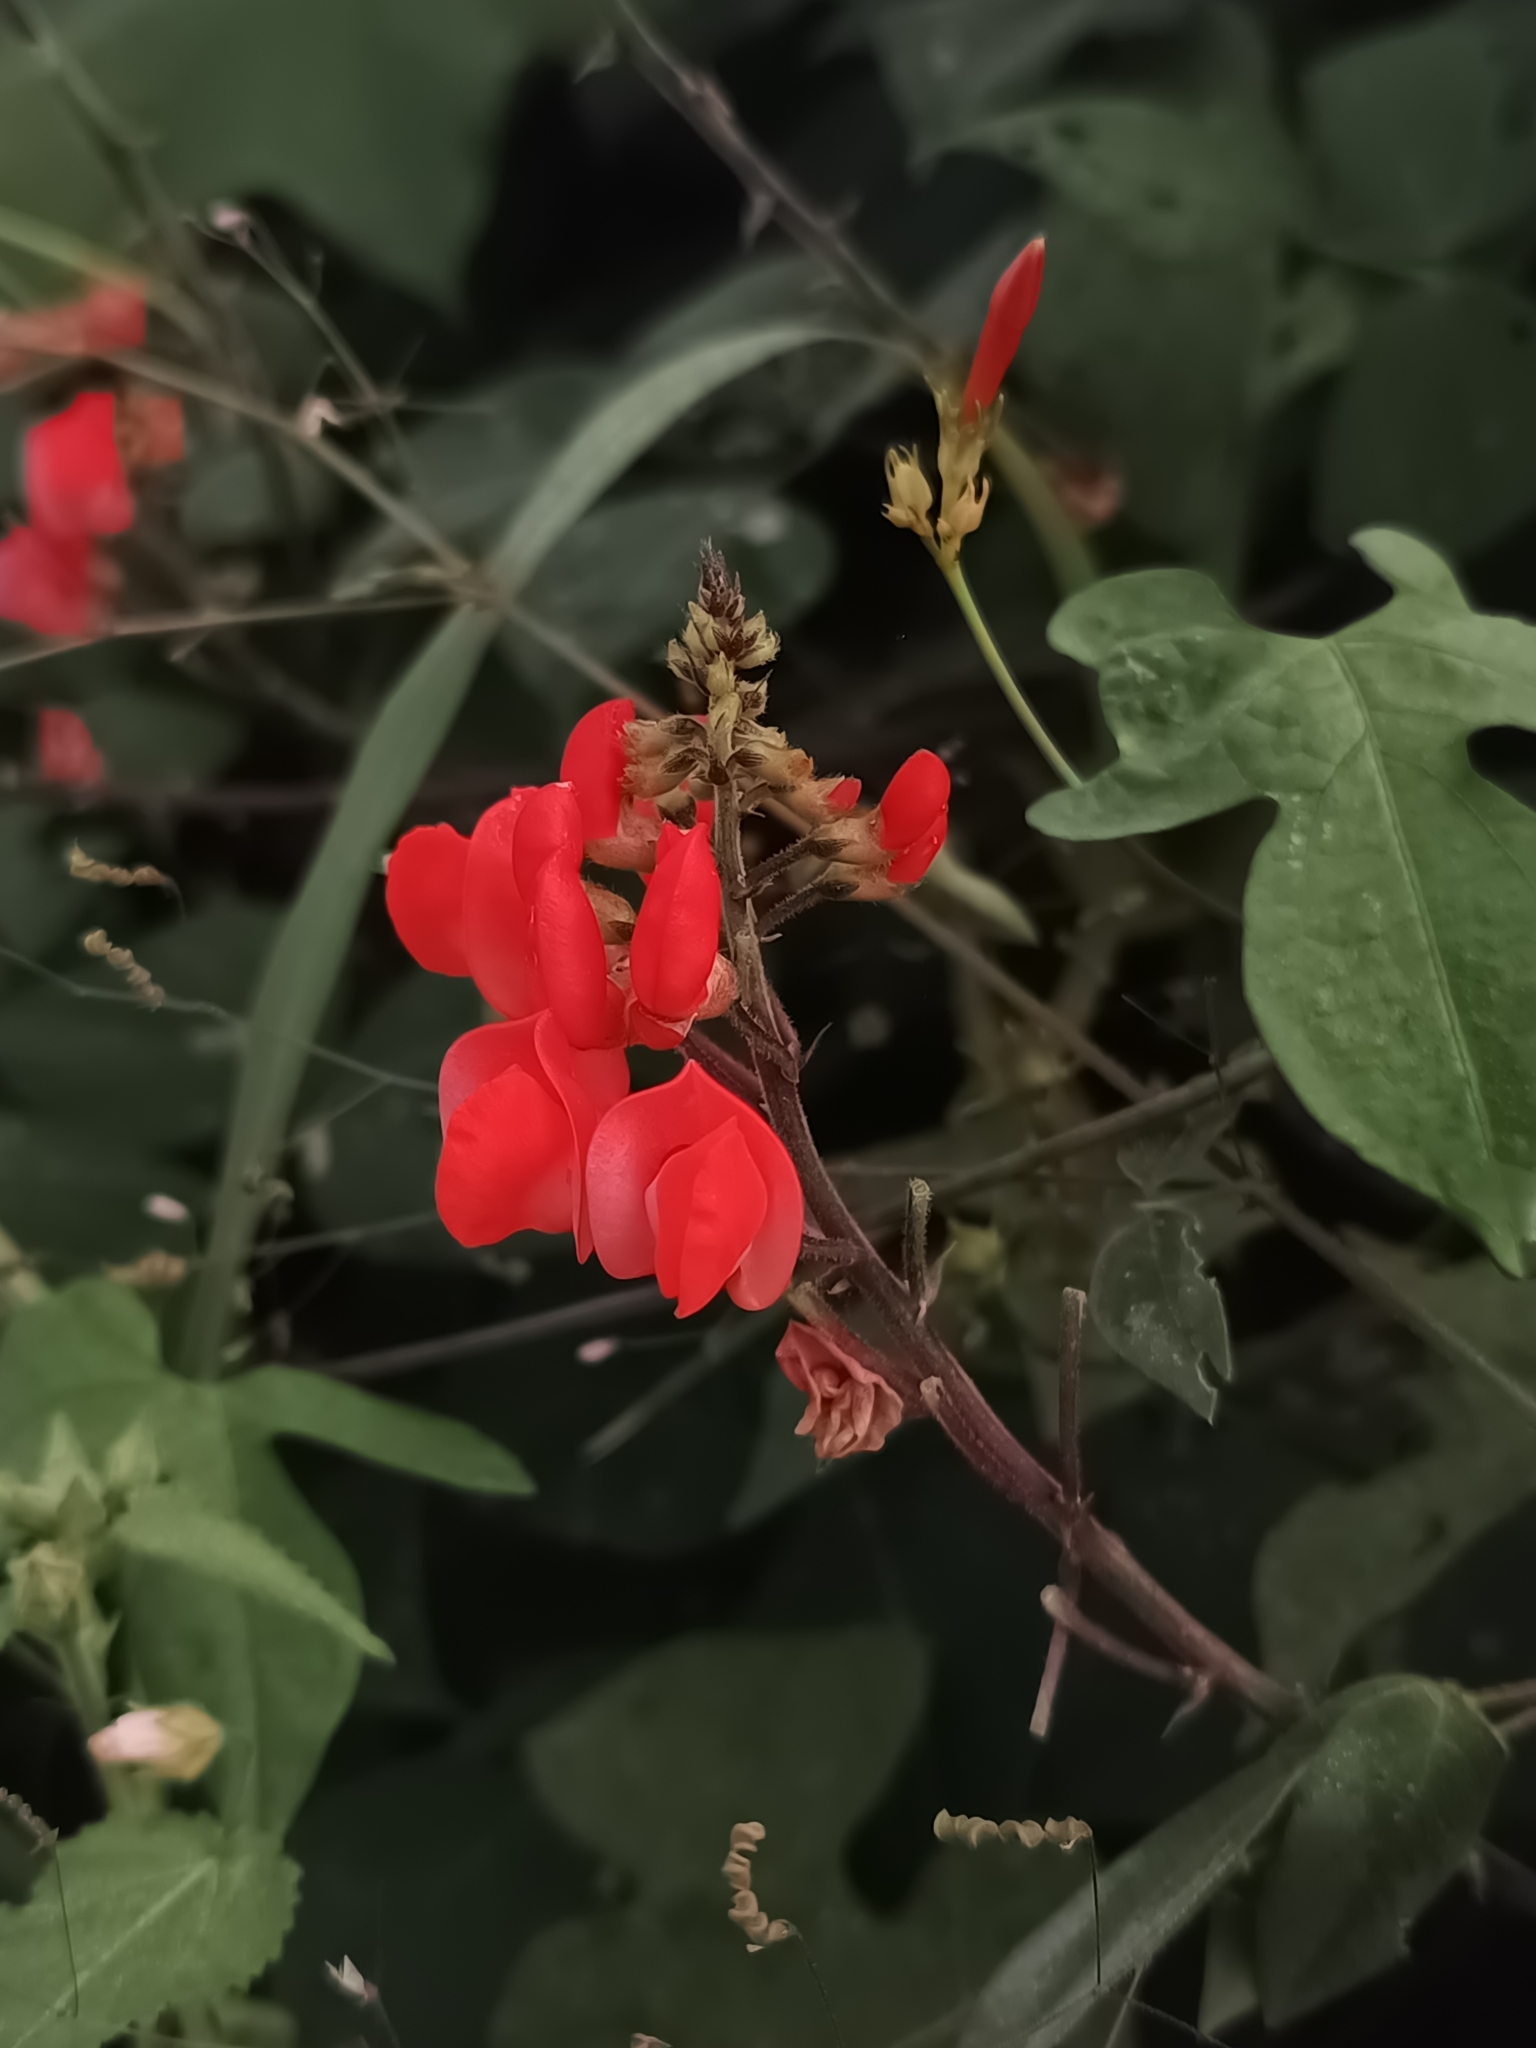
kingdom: Plantae
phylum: Tracheophyta
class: Magnoliopsida
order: Fabales
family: Fabaceae
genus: Phaseolus
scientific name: Phaseolus coccineus
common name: Runner bean
